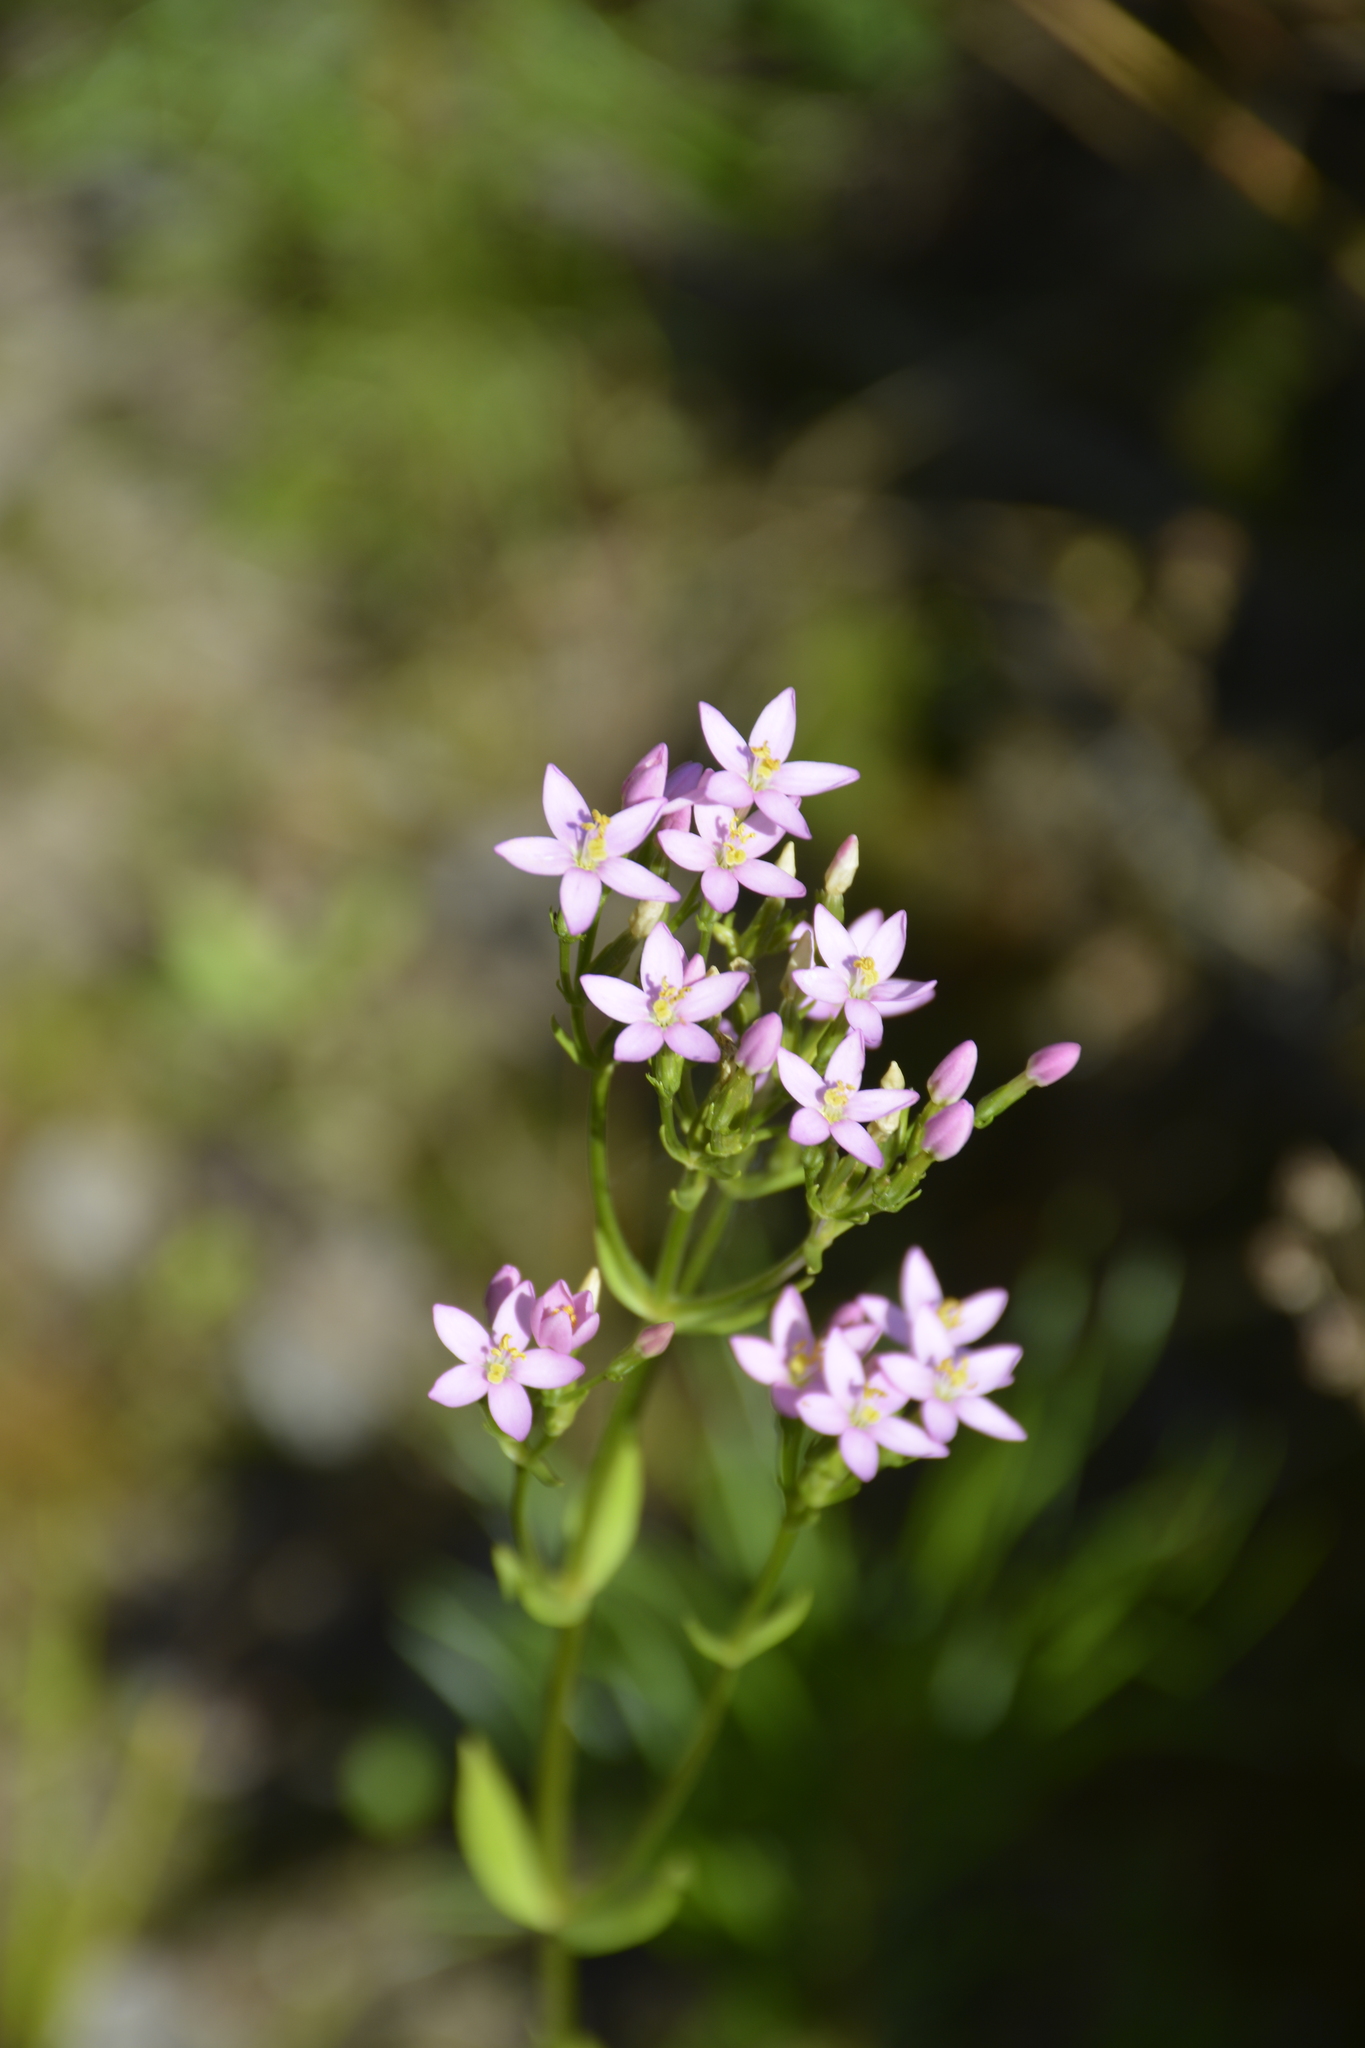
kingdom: Plantae
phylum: Tracheophyta
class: Magnoliopsida
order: Gentianales
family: Gentianaceae
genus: Centaurium
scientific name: Centaurium erythraea
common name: Common centaury
